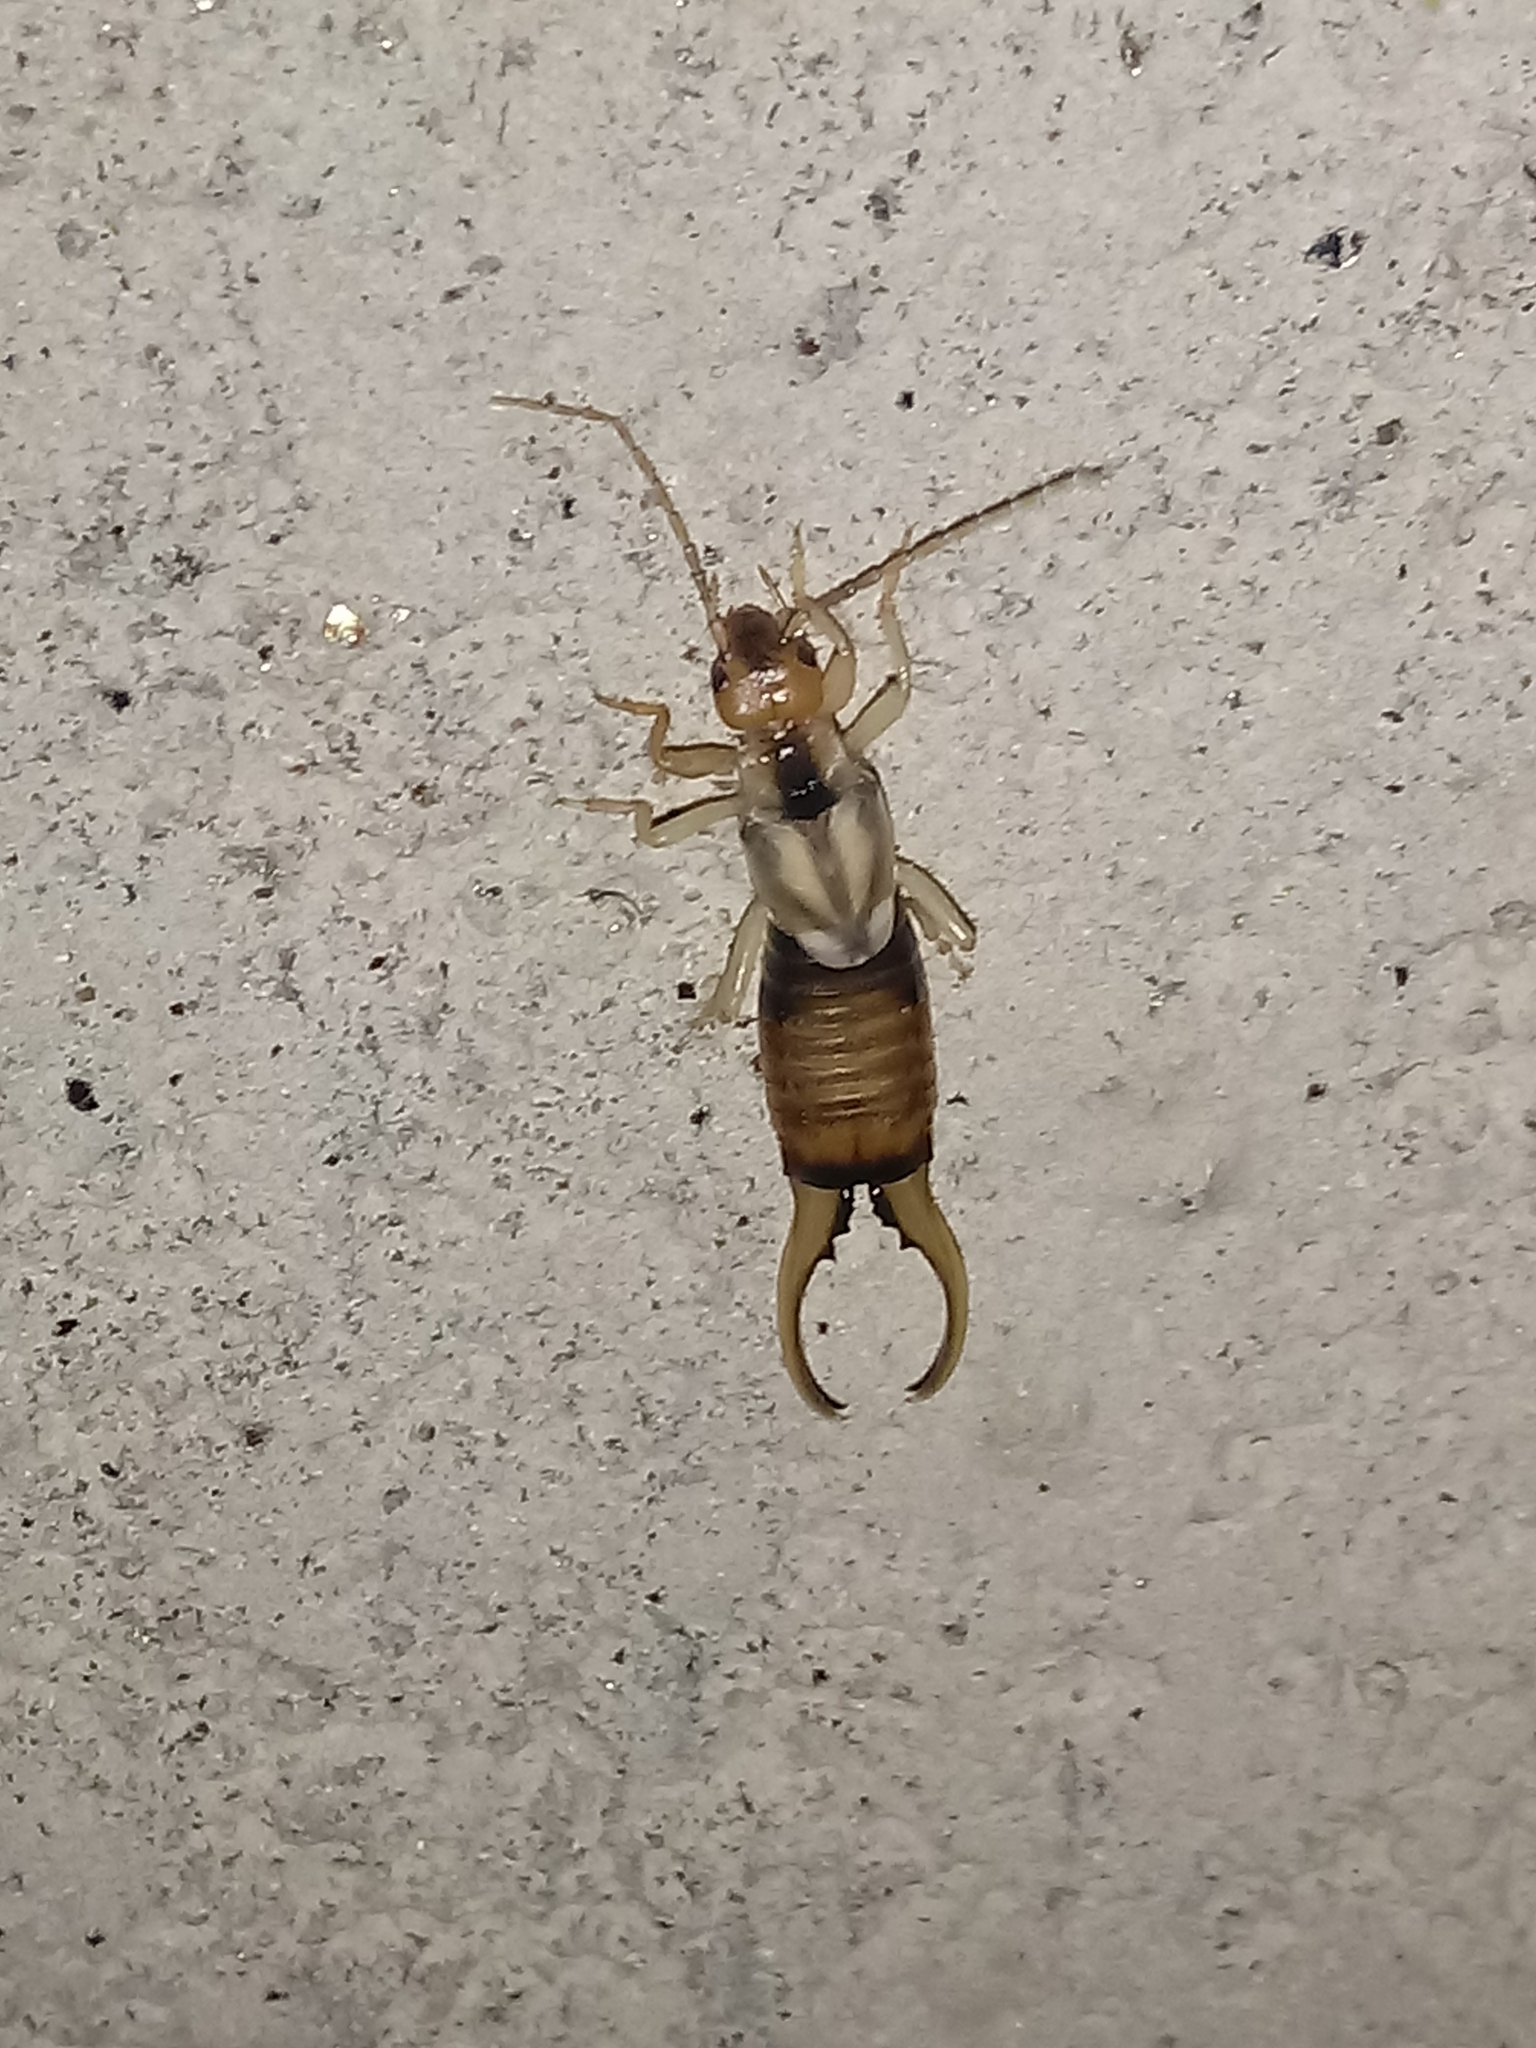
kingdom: Animalia
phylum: Arthropoda
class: Insecta
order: Dermaptera
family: Forficulidae
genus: Forficula
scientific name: Forficula
